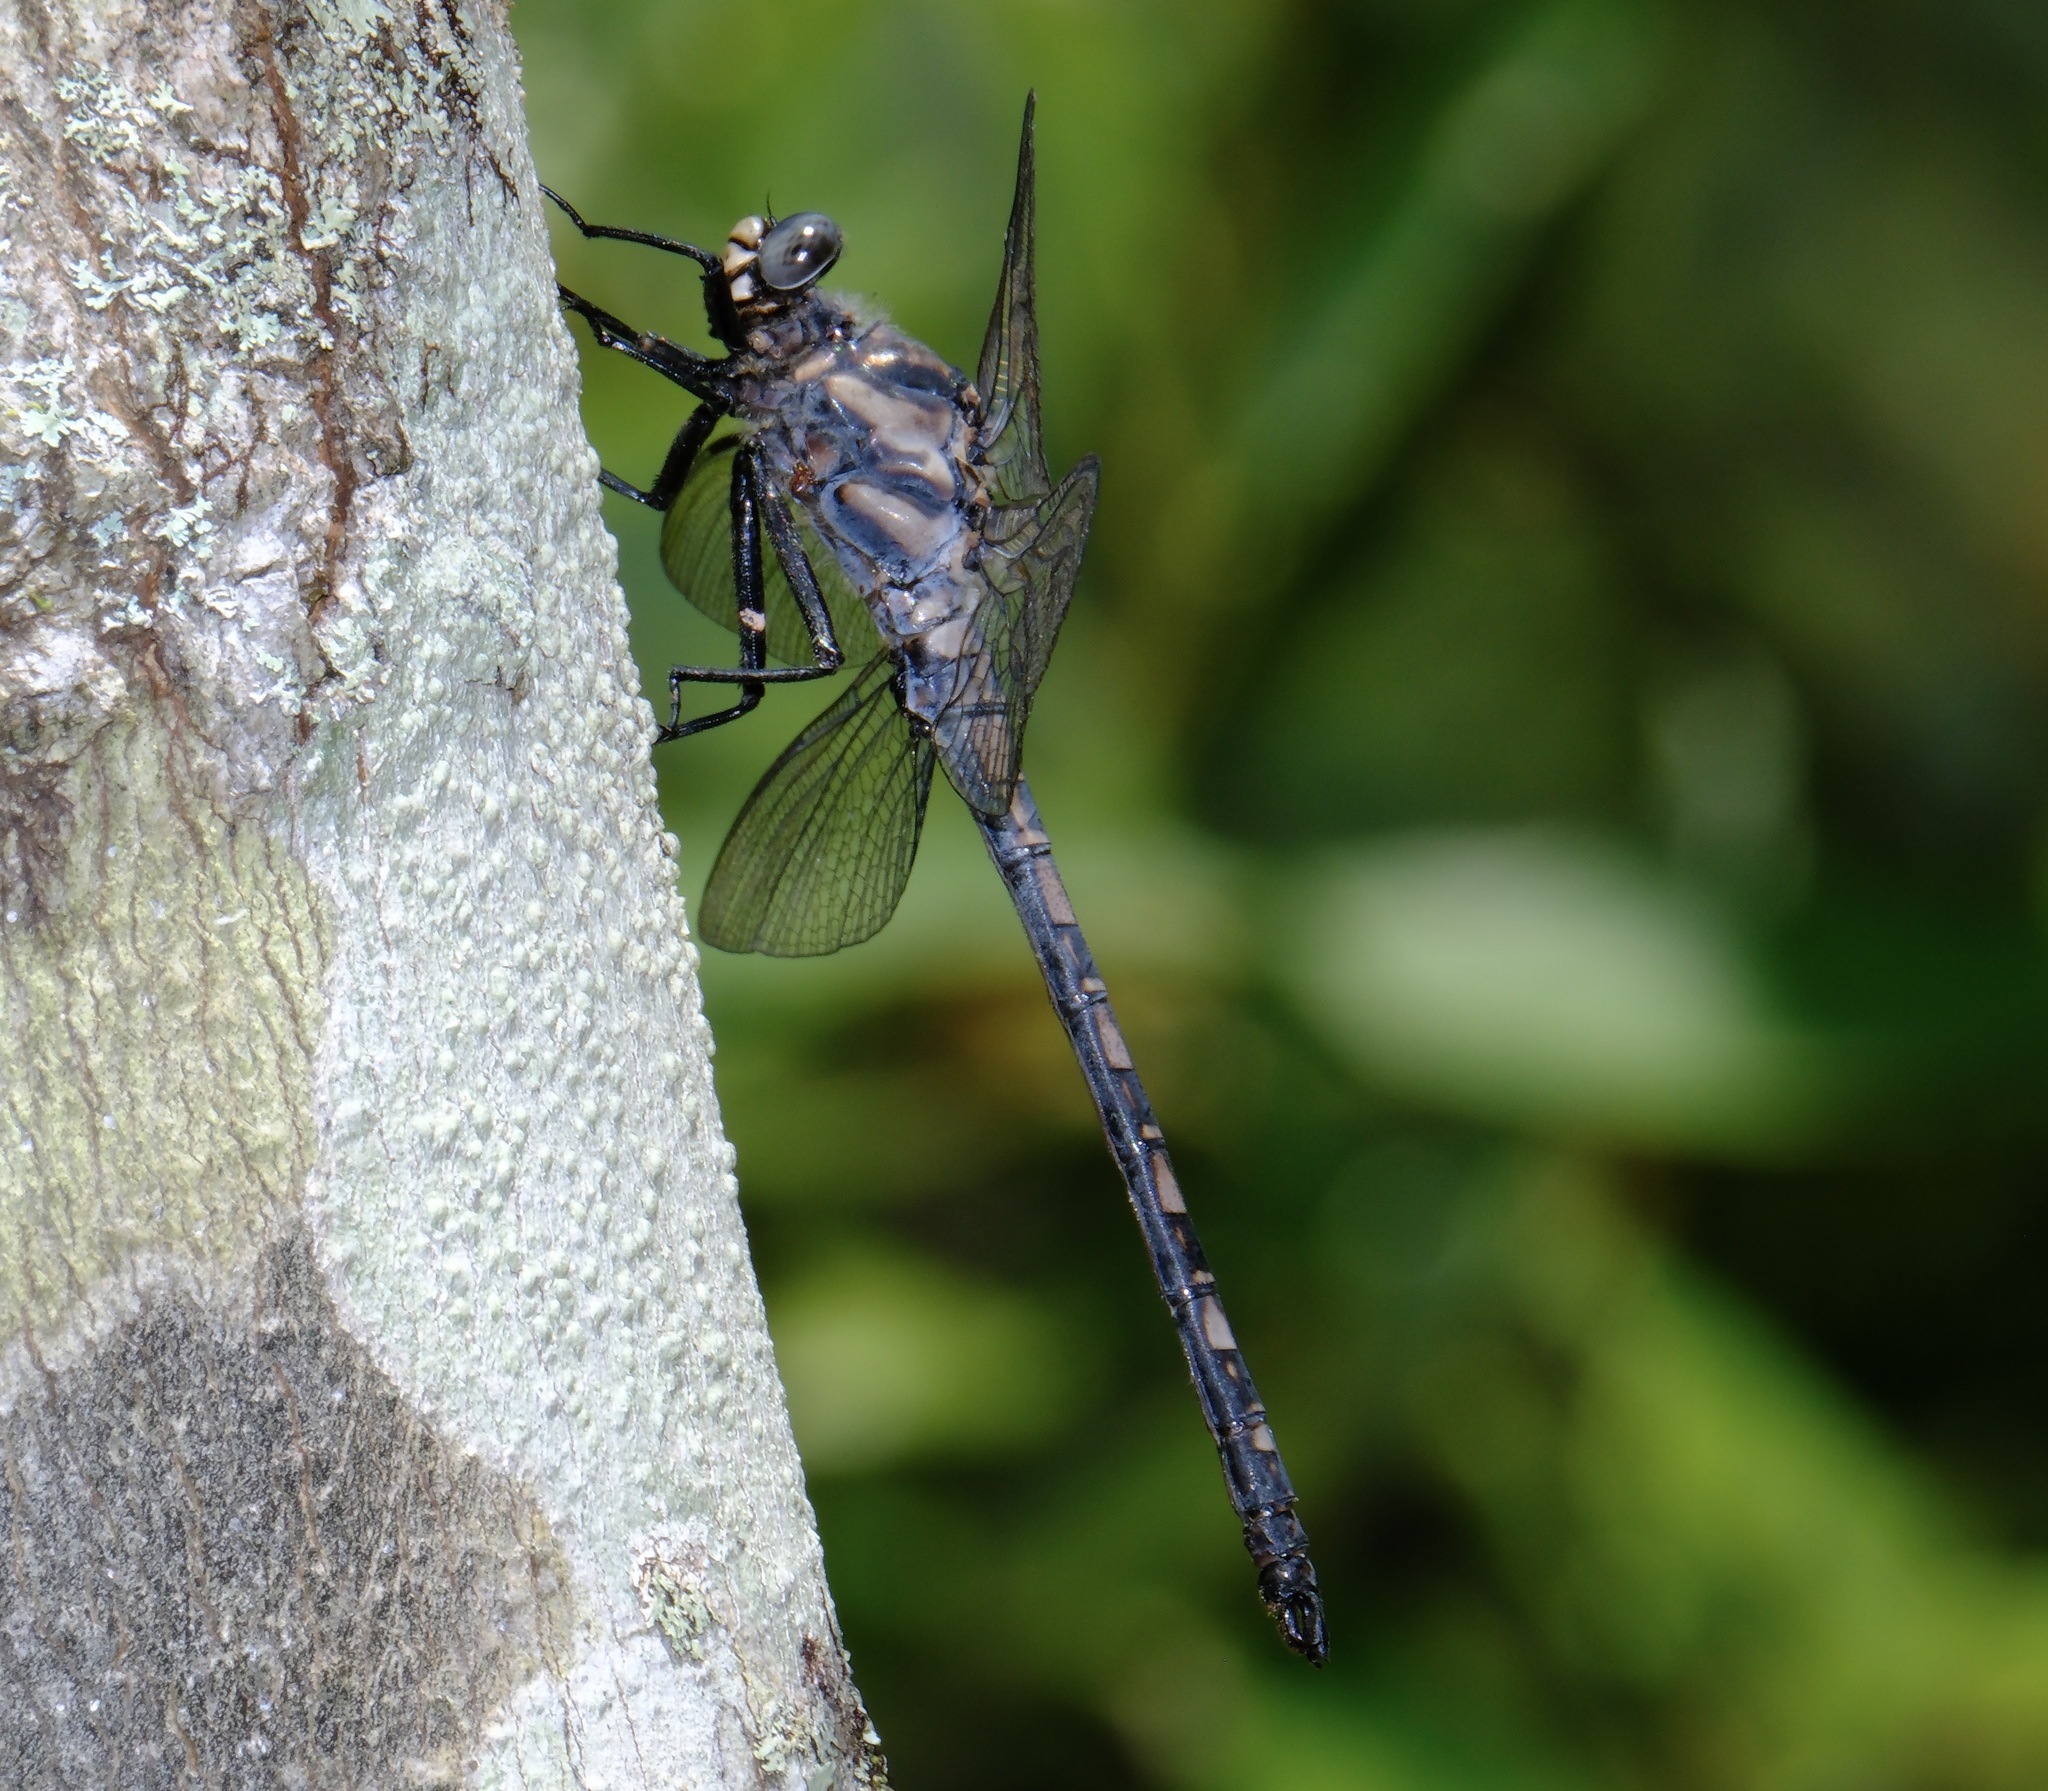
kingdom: Animalia
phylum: Arthropoda
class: Insecta
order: Odonata
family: Petaluridae
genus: Tachopteryx
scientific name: Tachopteryx thoreyi
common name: Gray petaltail
